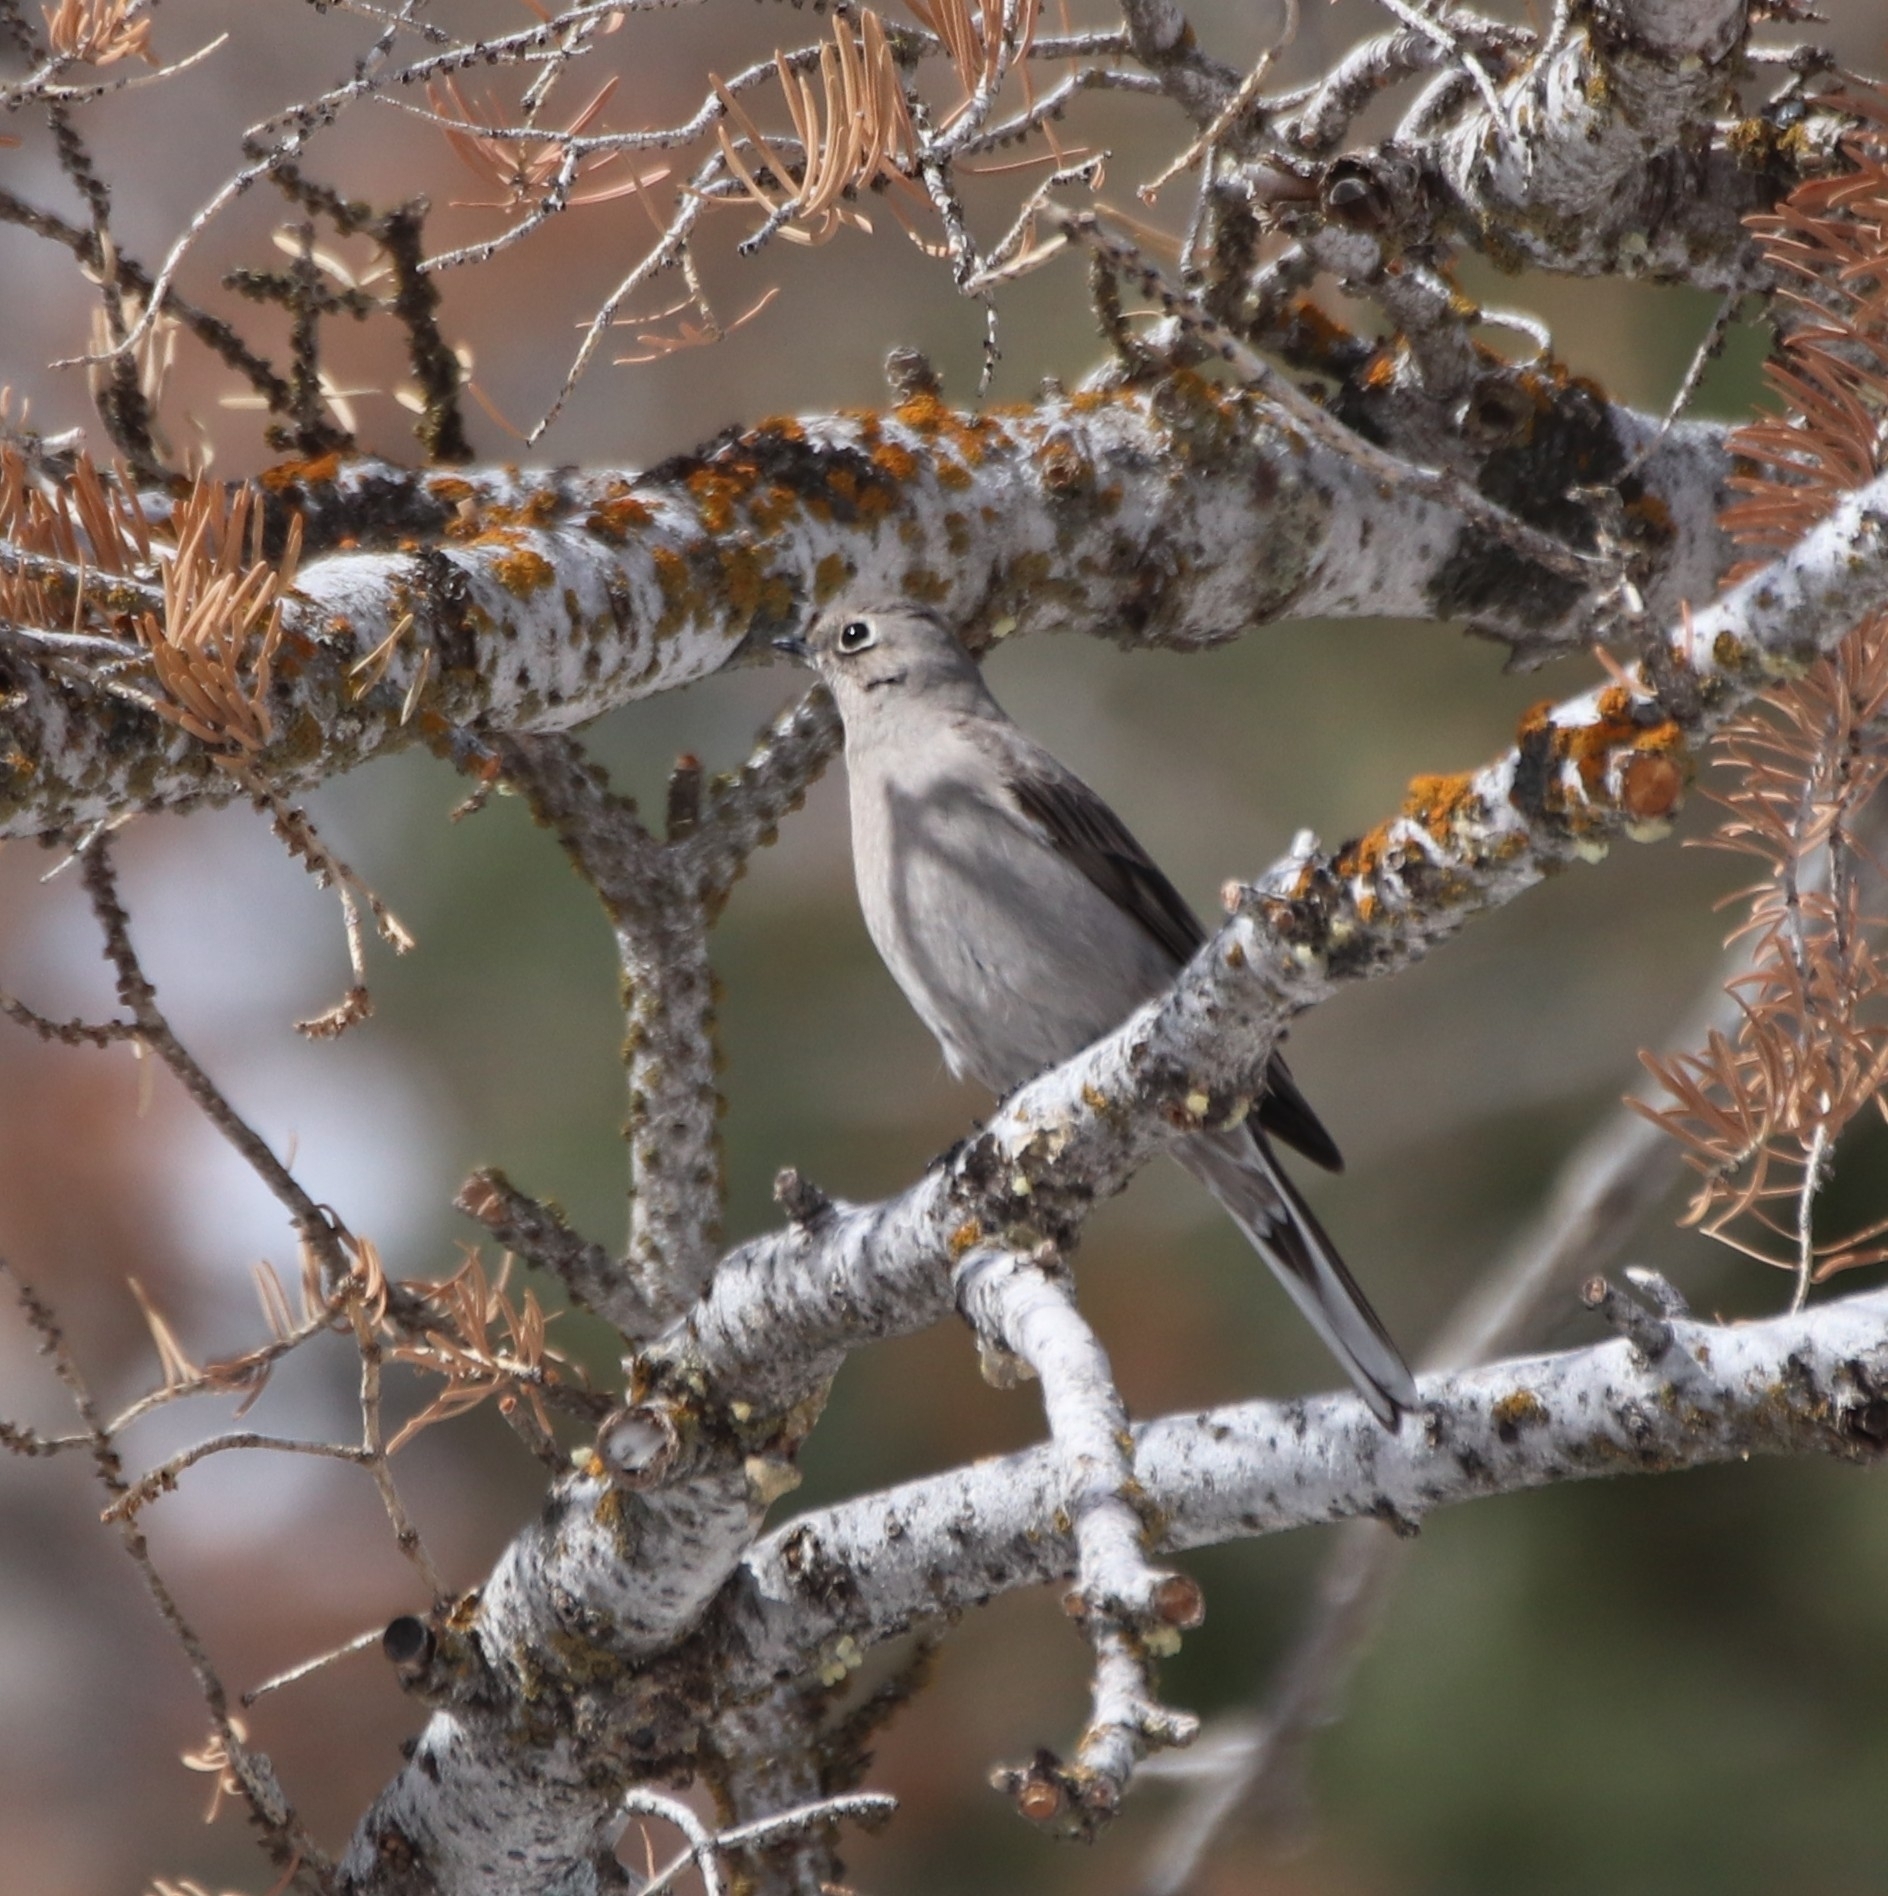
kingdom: Animalia
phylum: Chordata
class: Aves
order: Passeriformes
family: Turdidae
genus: Myadestes
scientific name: Myadestes townsendi
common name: Townsend's solitaire
